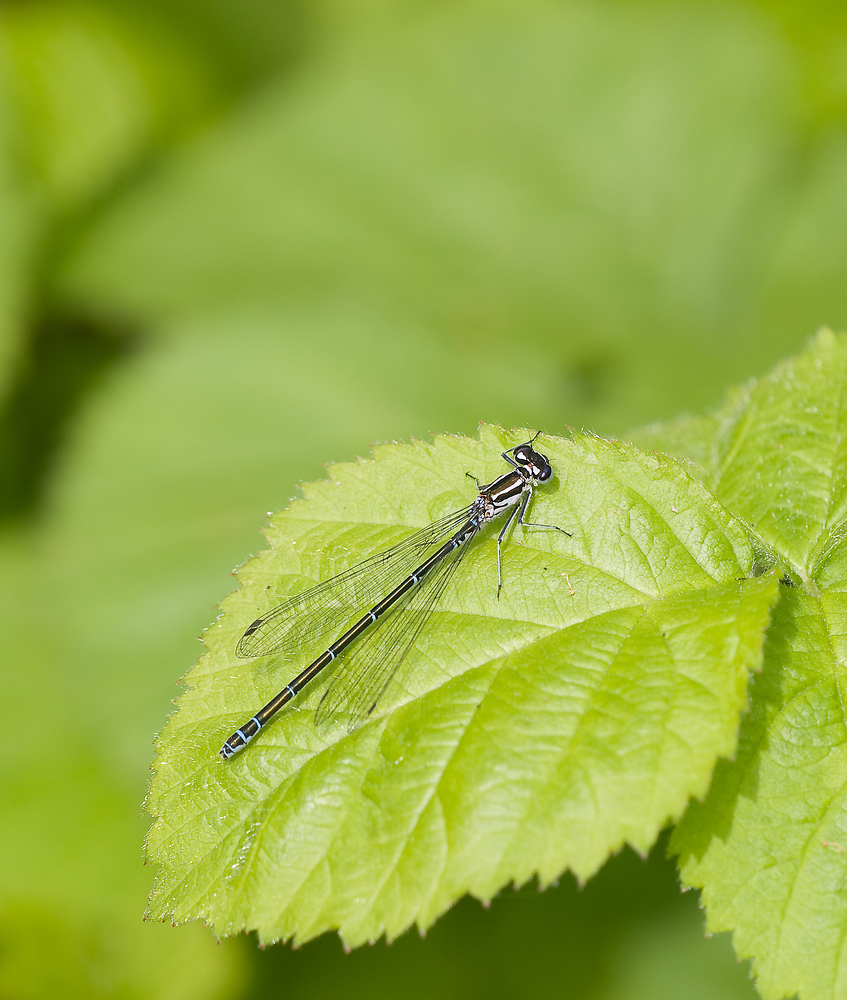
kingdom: Animalia
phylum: Arthropoda
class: Insecta
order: Odonata
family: Coenagrionidae
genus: Coenagrion
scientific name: Coenagrion puella
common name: Azure damselfly
